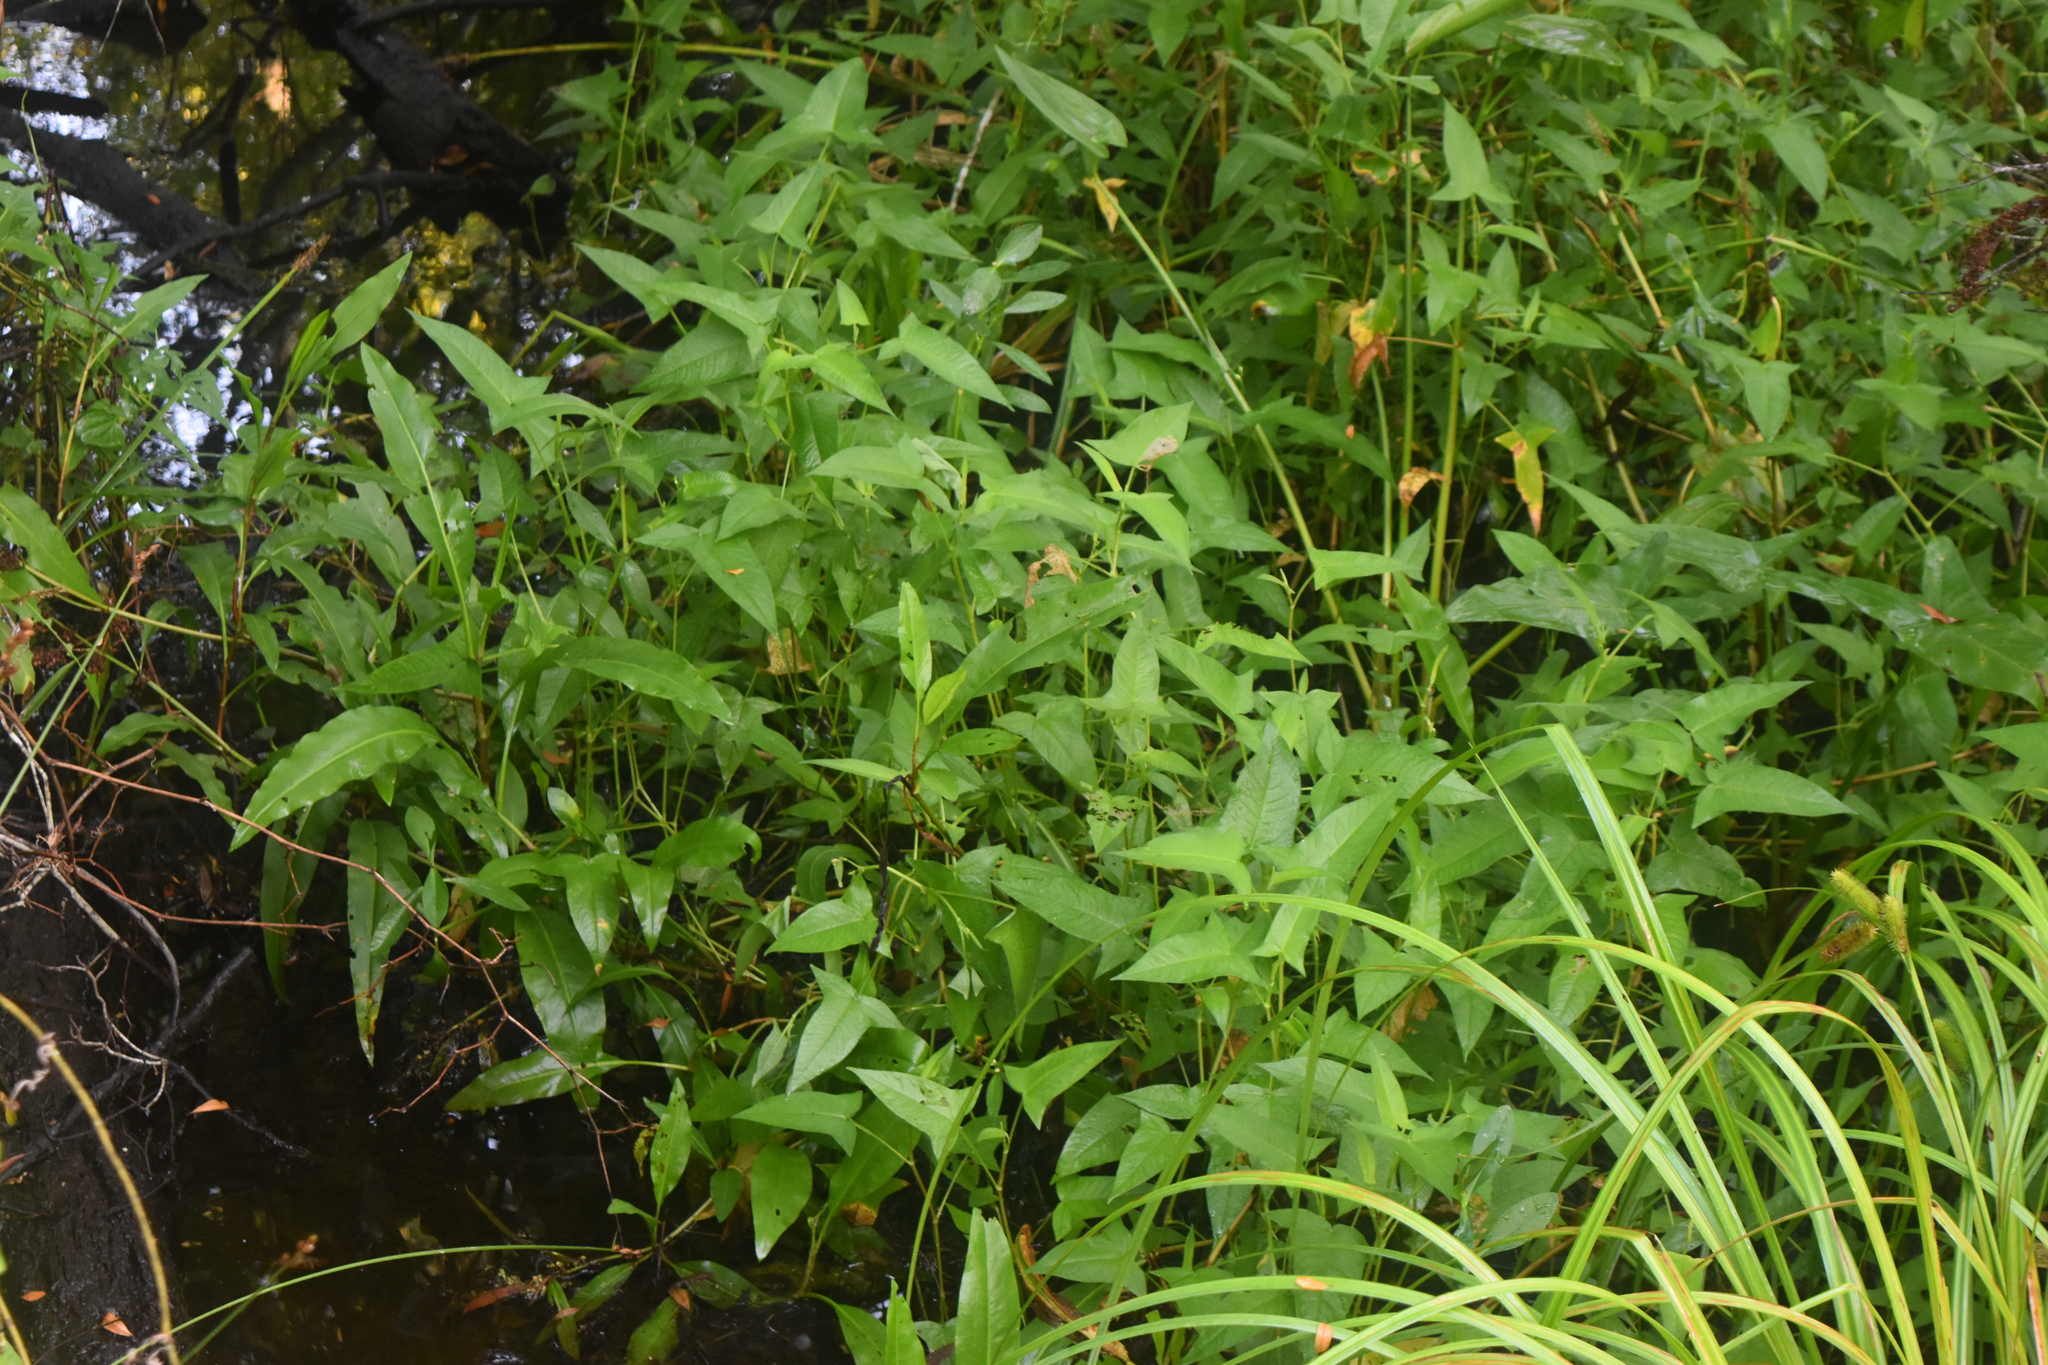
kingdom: Plantae
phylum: Tracheophyta
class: Magnoliopsida
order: Caryophyllales
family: Polygonaceae
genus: Persicaria
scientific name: Persicaria arifolia
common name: Halberd-leaved tear-thumb
